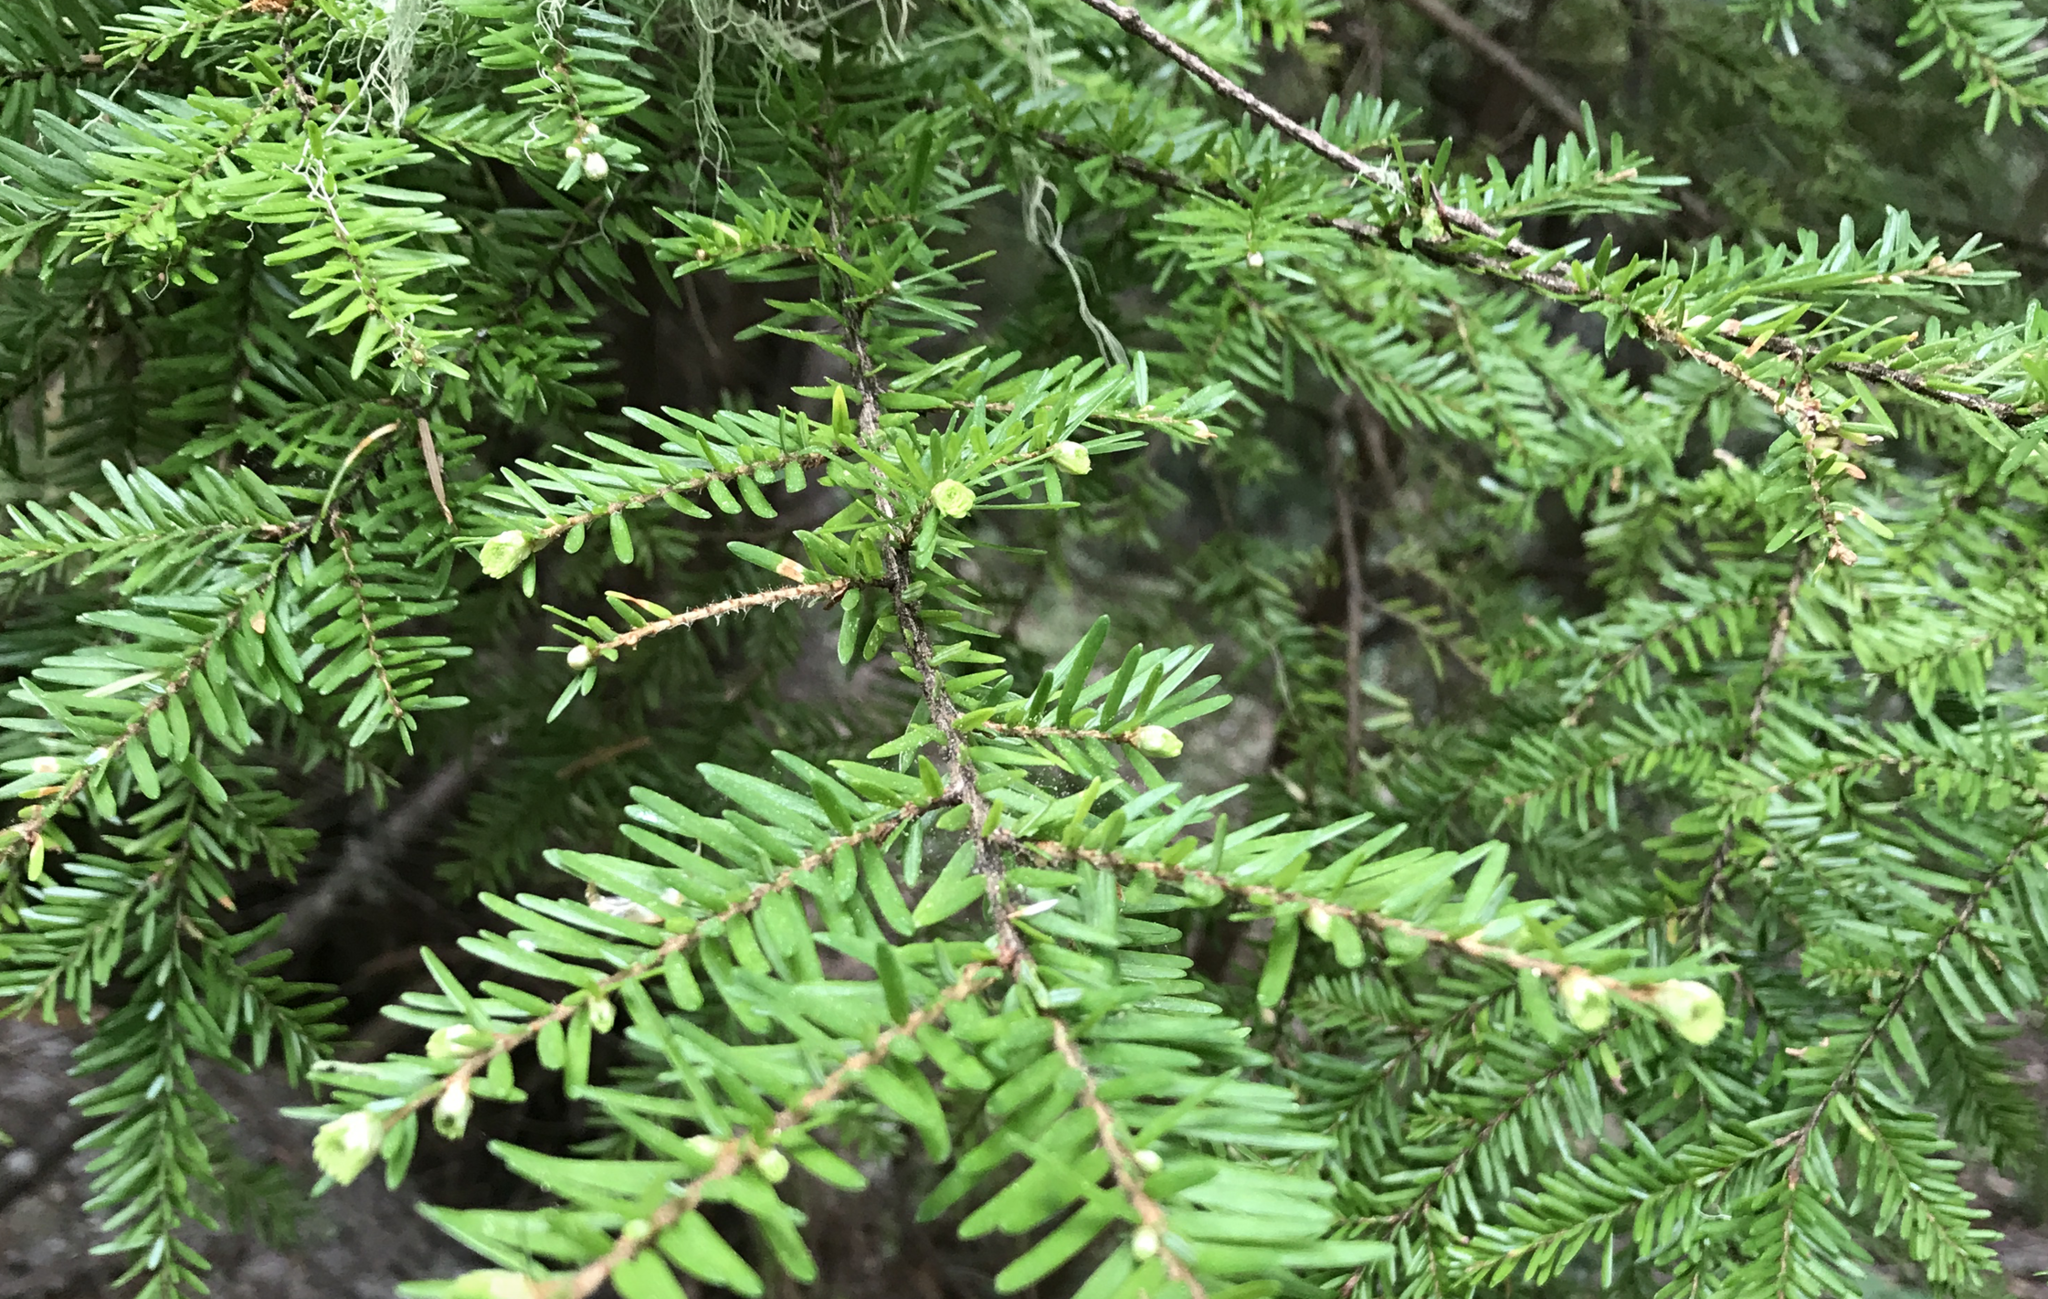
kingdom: Plantae
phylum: Tracheophyta
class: Pinopsida
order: Pinales
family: Pinaceae
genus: Tsuga
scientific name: Tsuga heterophylla
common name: Western hemlock
